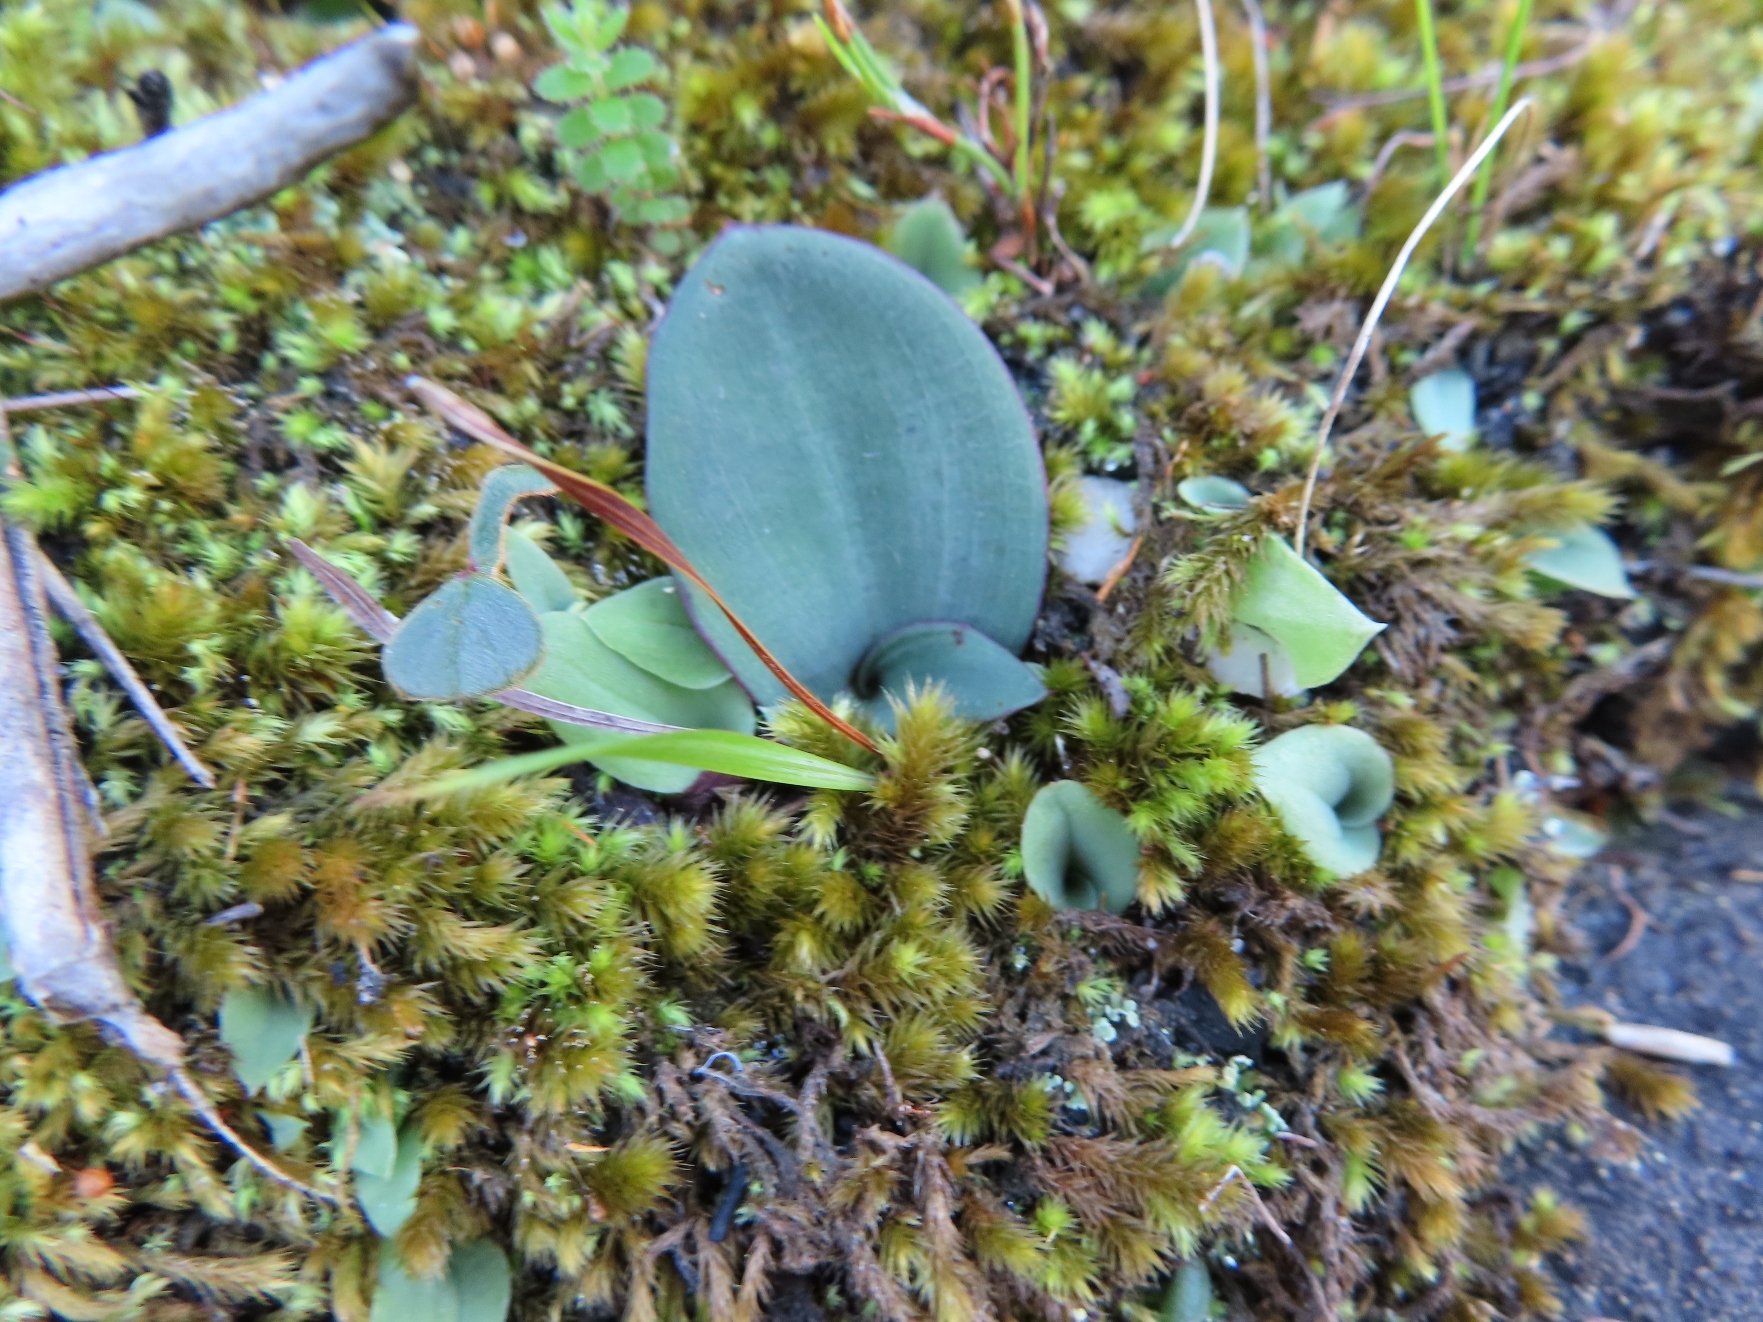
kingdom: Plantae
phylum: Tracheophyta
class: Liliopsida
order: Asparagales
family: Asparagaceae
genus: Drimia
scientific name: Drimia platyphylla
